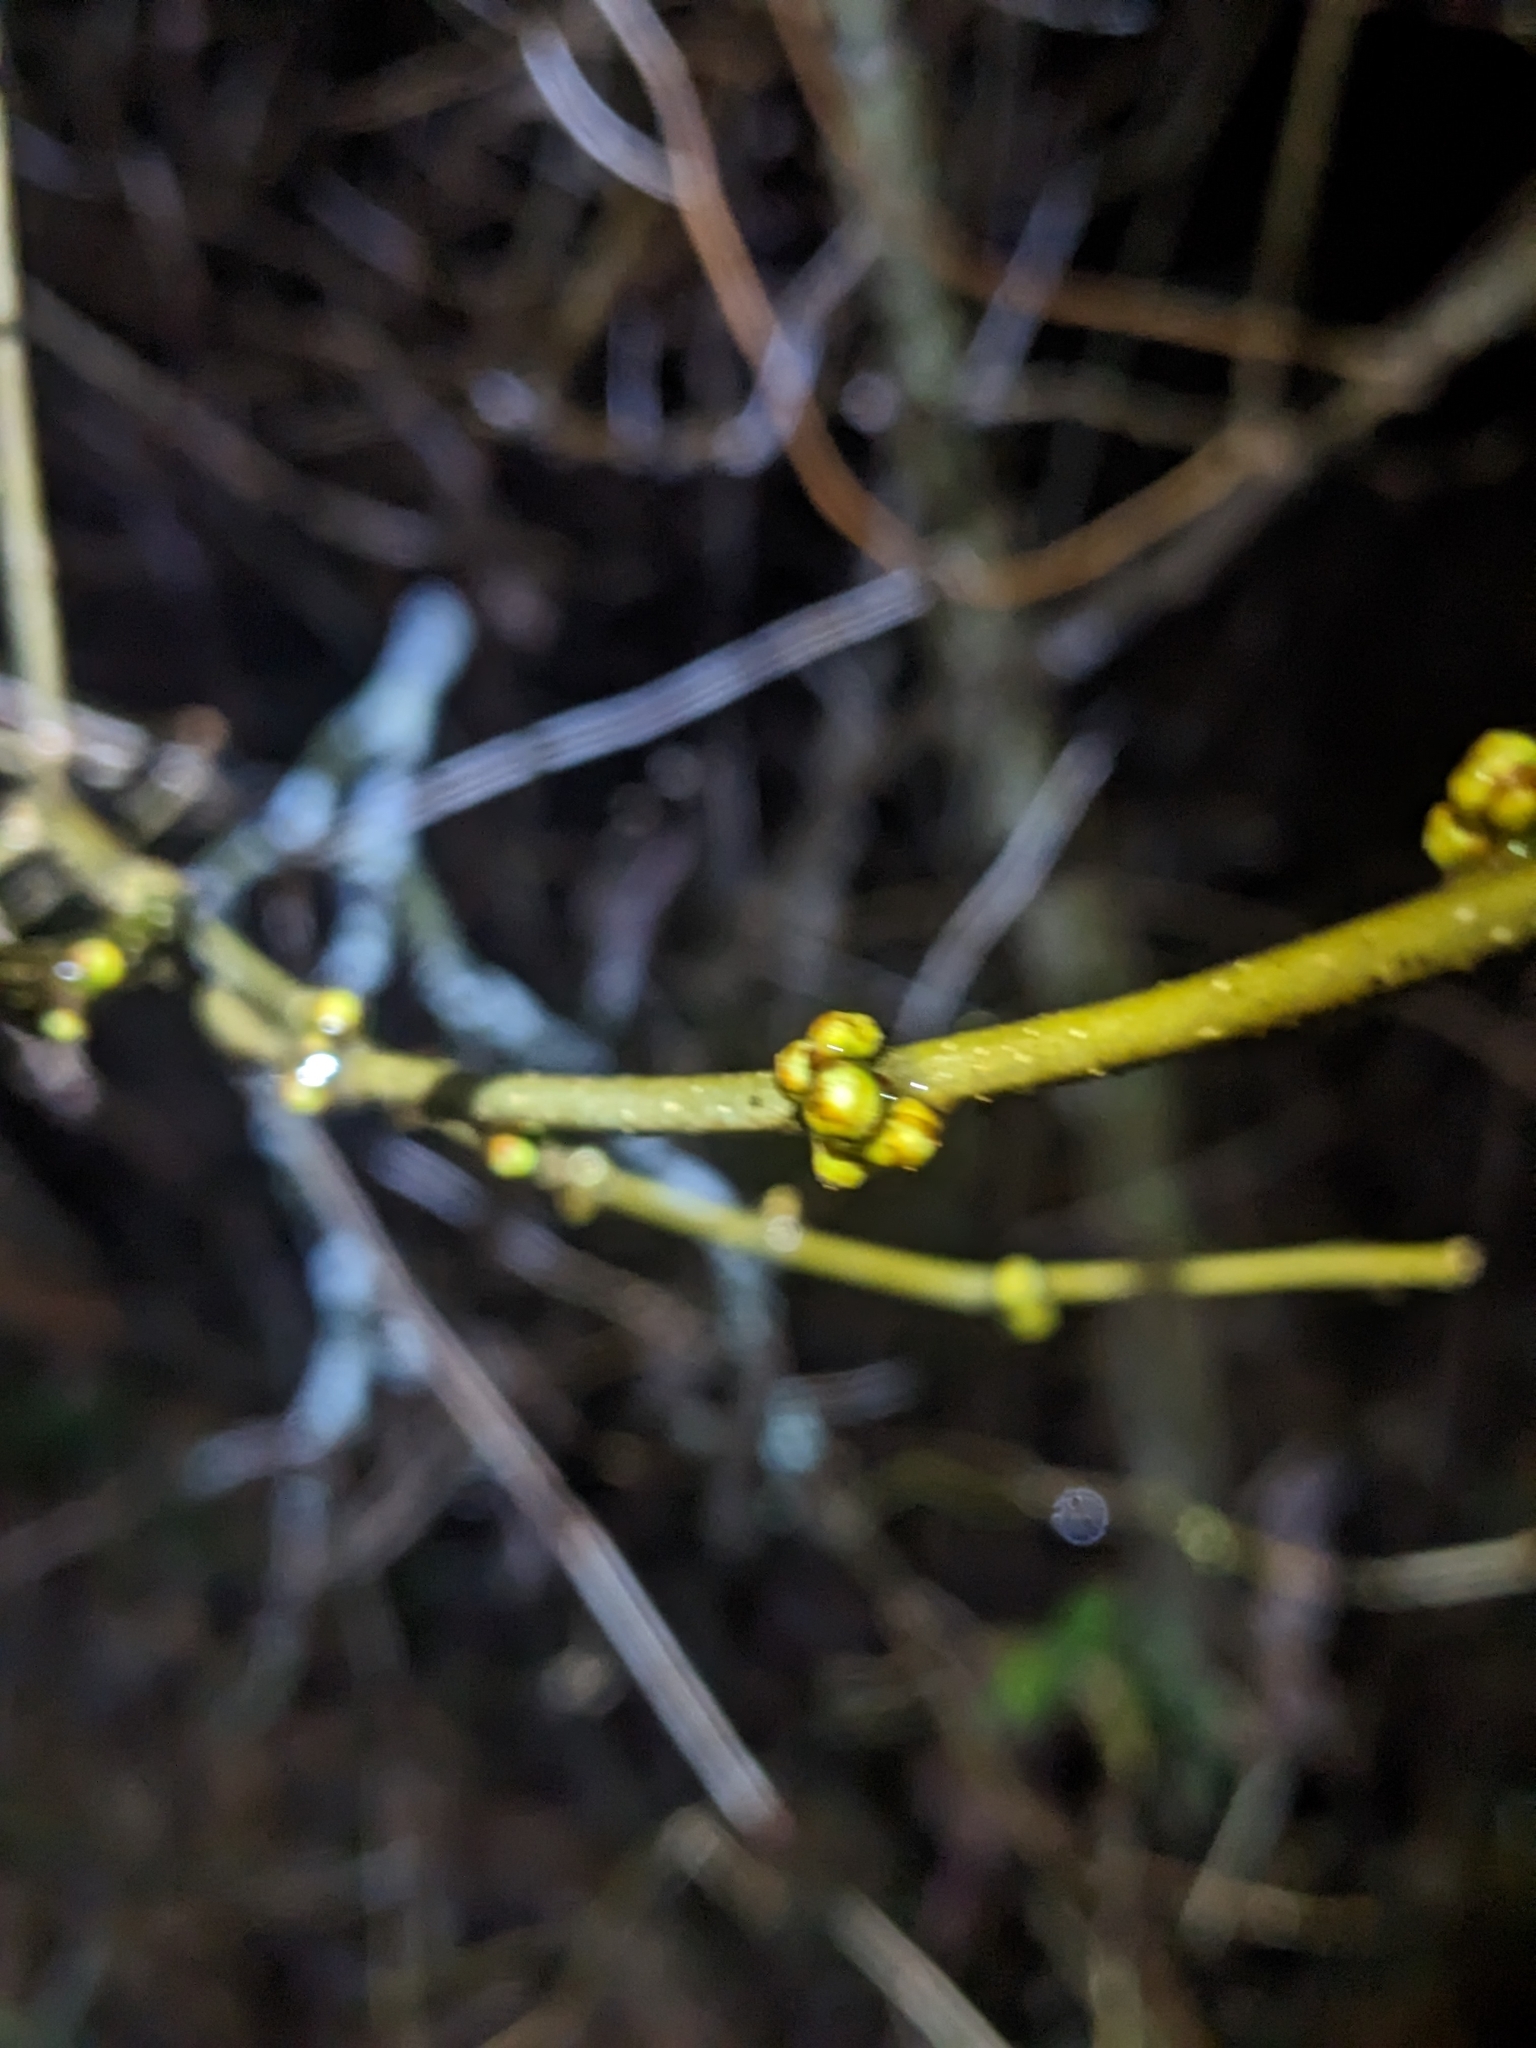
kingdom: Plantae
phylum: Tracheophyta
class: Magnoliopsida
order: Laurales
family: Lauraceae
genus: Lindera
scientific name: Lindera benzoin
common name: Spicebush
